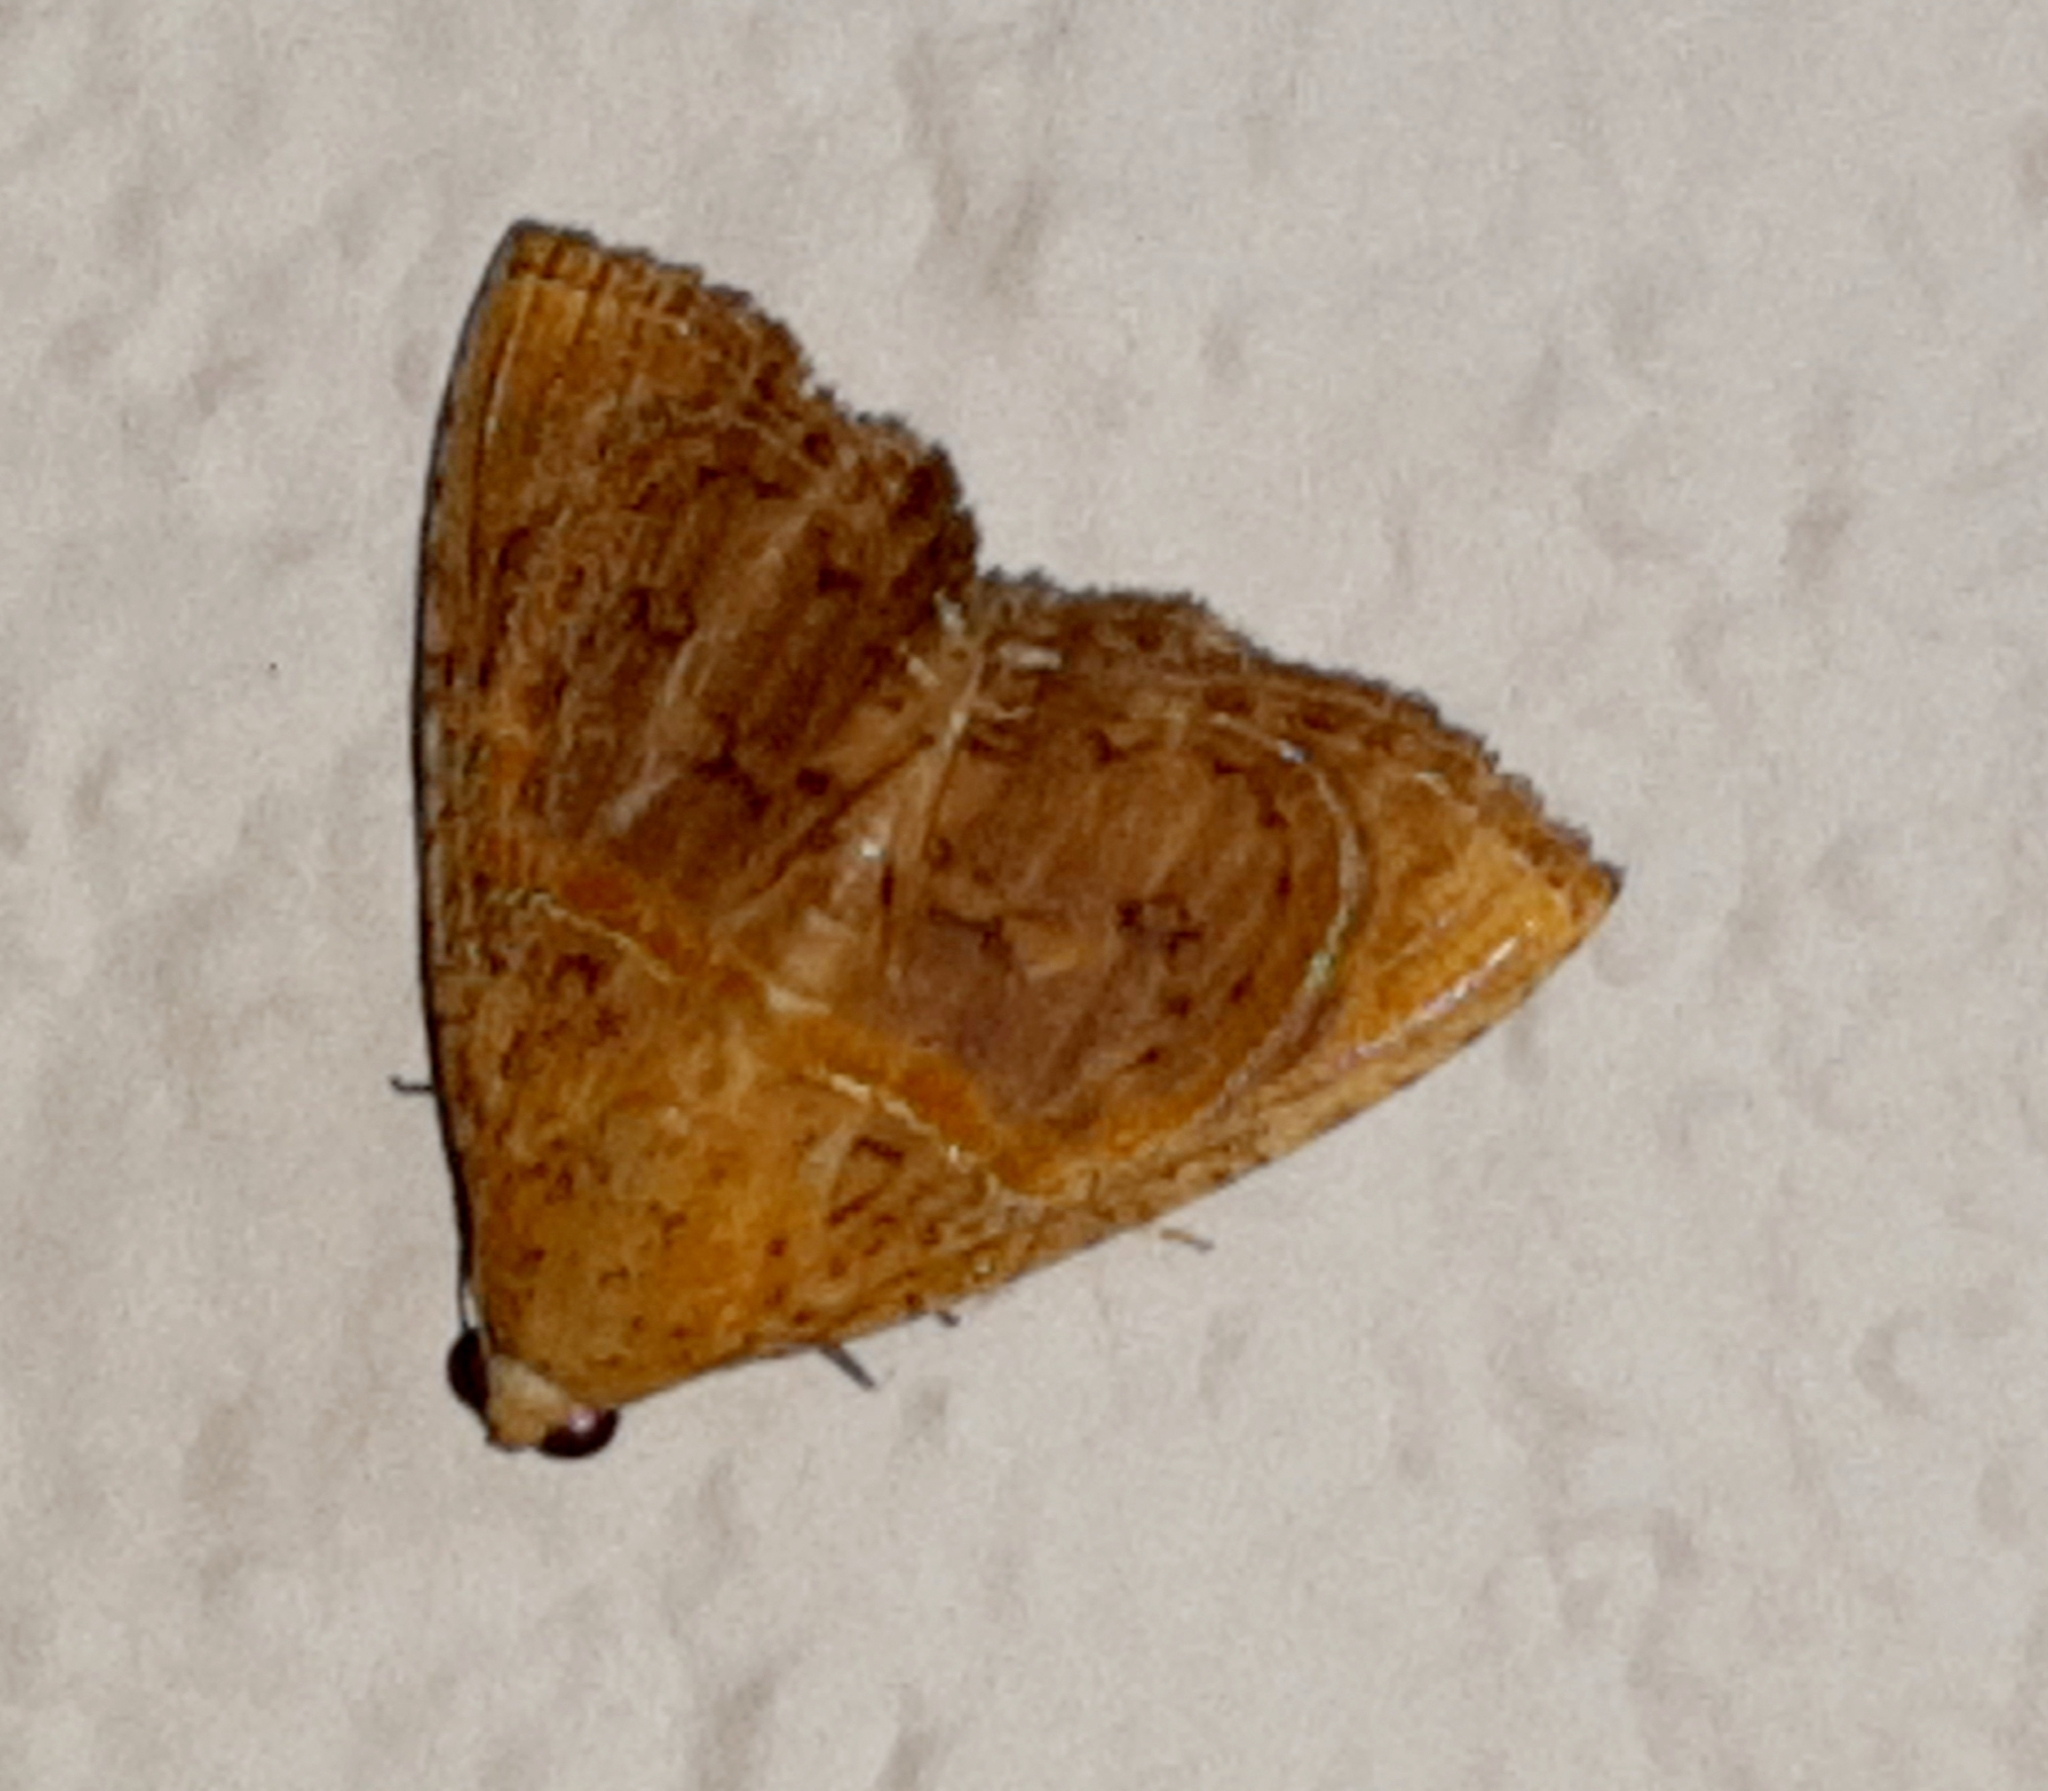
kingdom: Animalia
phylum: Arthropoda
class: Insecta
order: Lepidoptera
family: Erebidae
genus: Calydia
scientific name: Calydia bourgaulti
